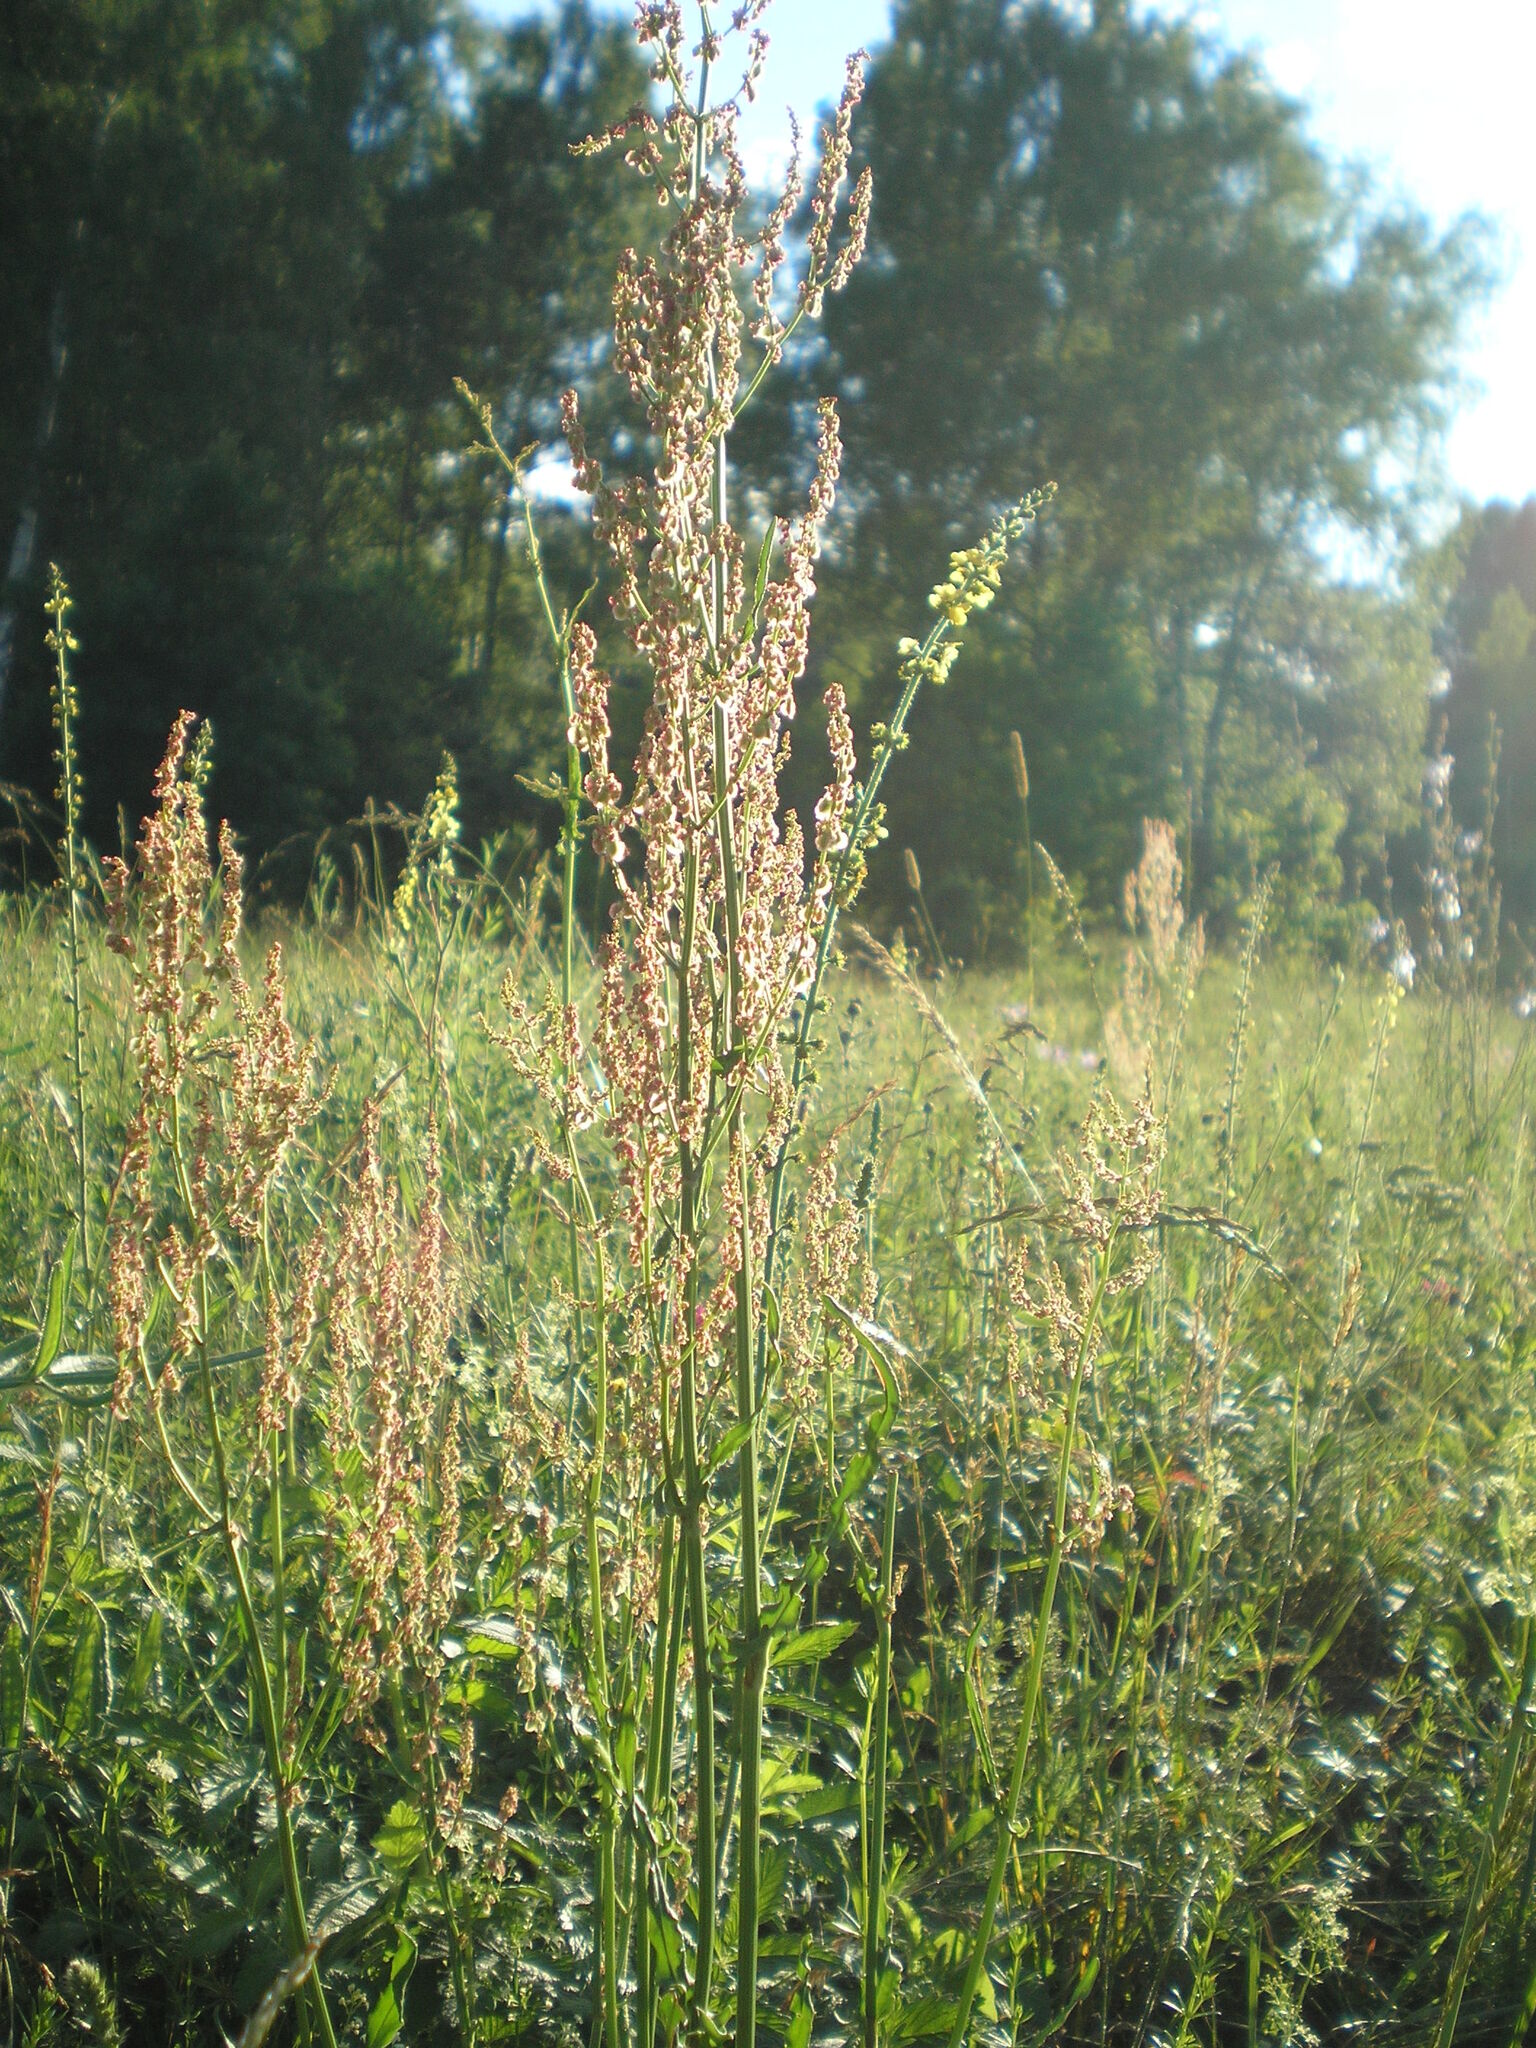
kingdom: Plantae
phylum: Tracheophyta
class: Magnoliopsida
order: Caryophyllales
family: Polygonaceae
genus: Rumex
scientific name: Rumex acetosa
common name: Garden sorrel
